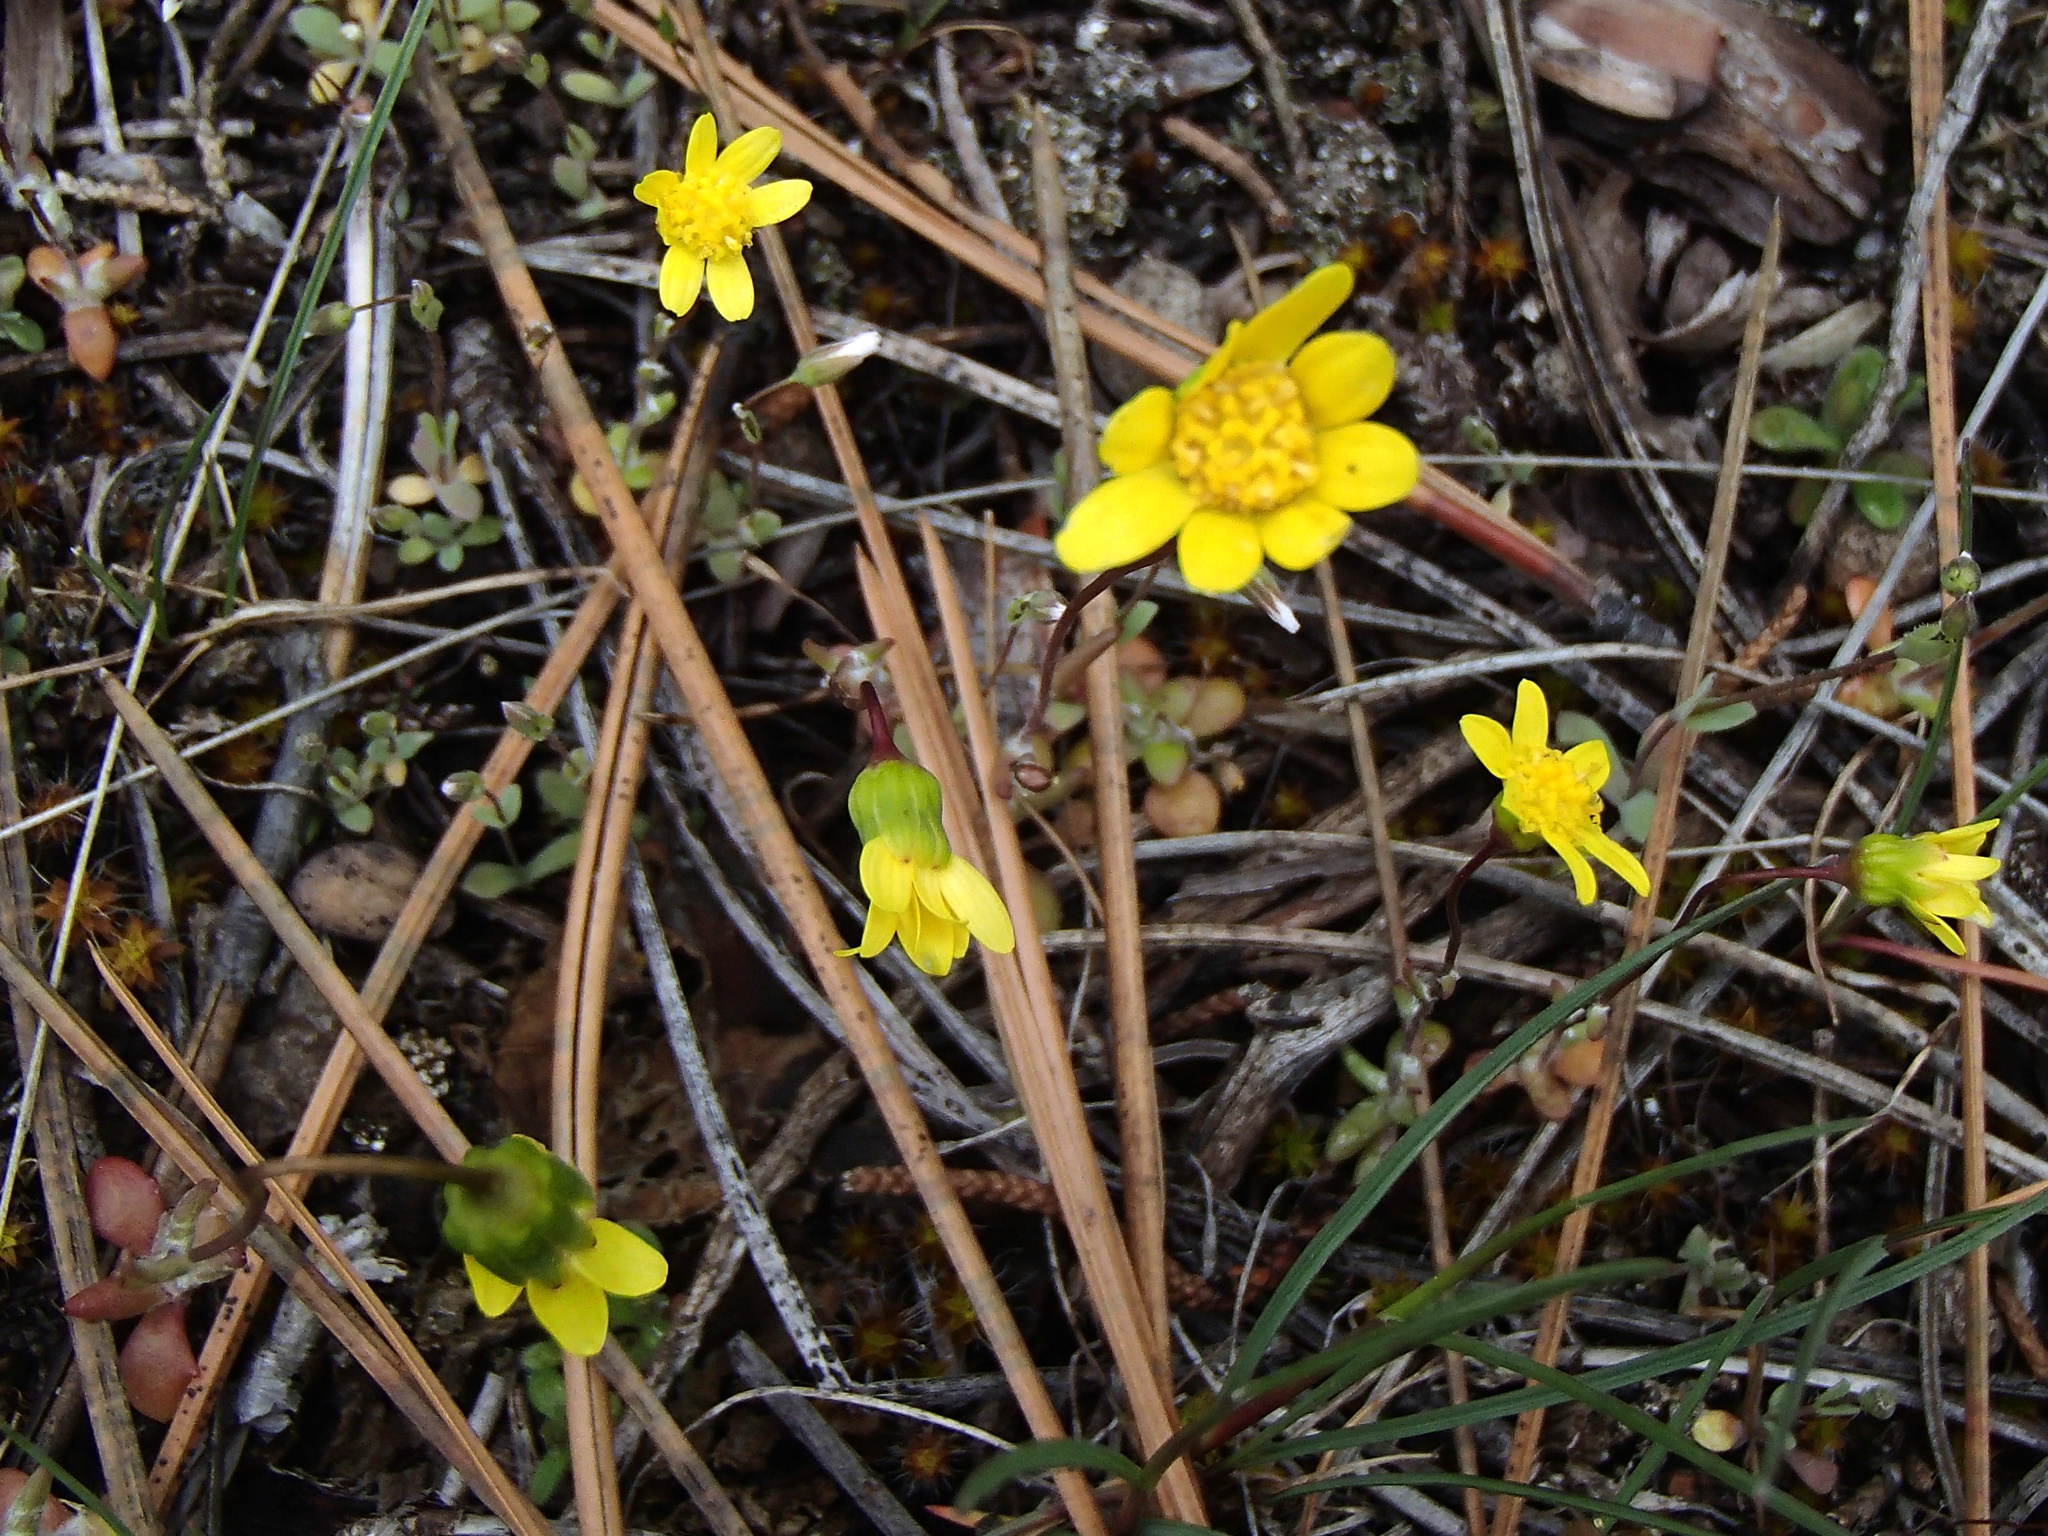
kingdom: Plantae
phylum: Tracheophyta
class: Magnoliopsida
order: Asterales
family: Asteraceae
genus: Crocidium
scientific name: Crocidium multicaule
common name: Common spring gold
